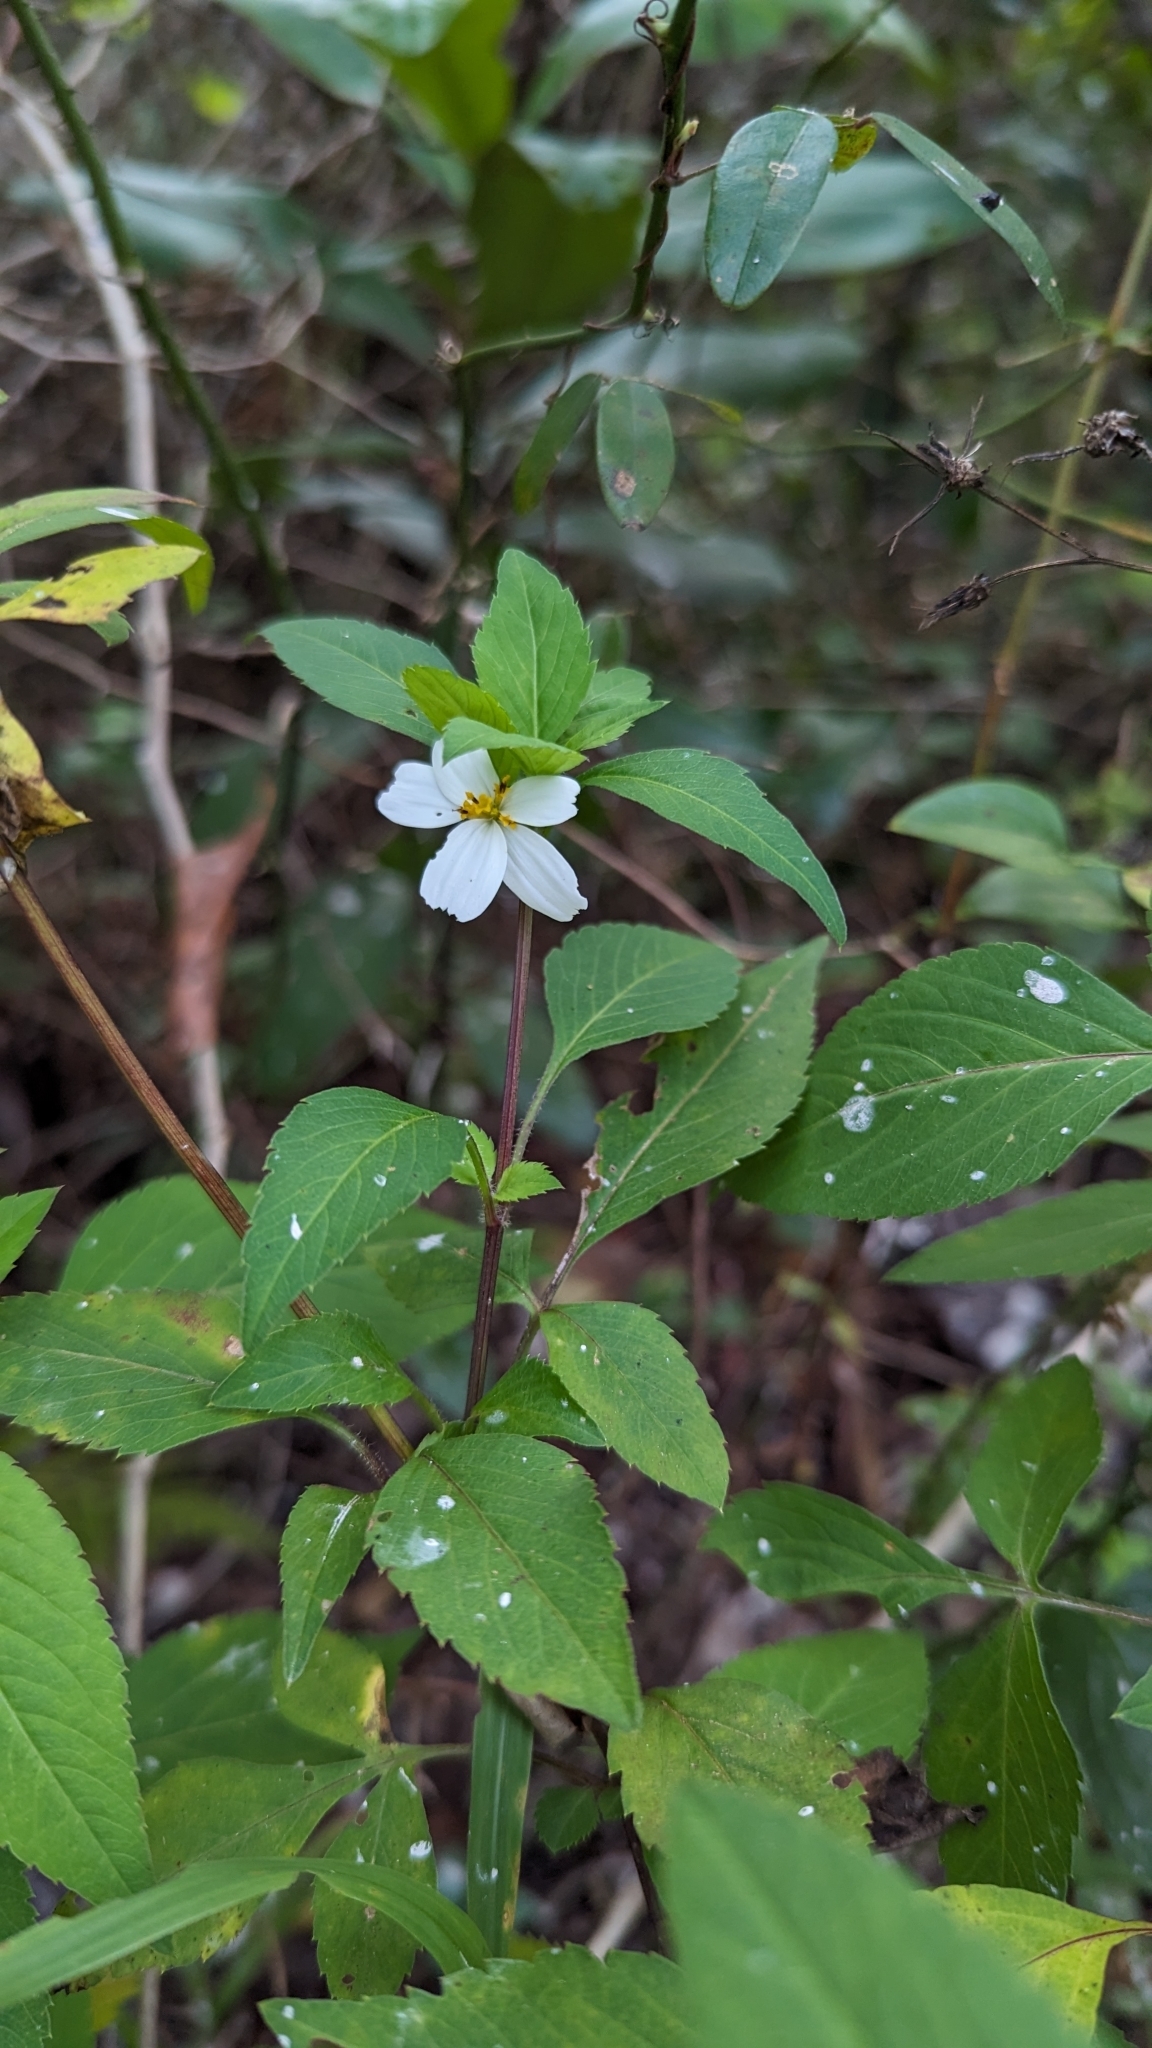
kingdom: Plantae
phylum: Tracheophyta
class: Magnoliopsida
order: Asterales
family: Asteraceae
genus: Bidens
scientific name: Bidens alba
